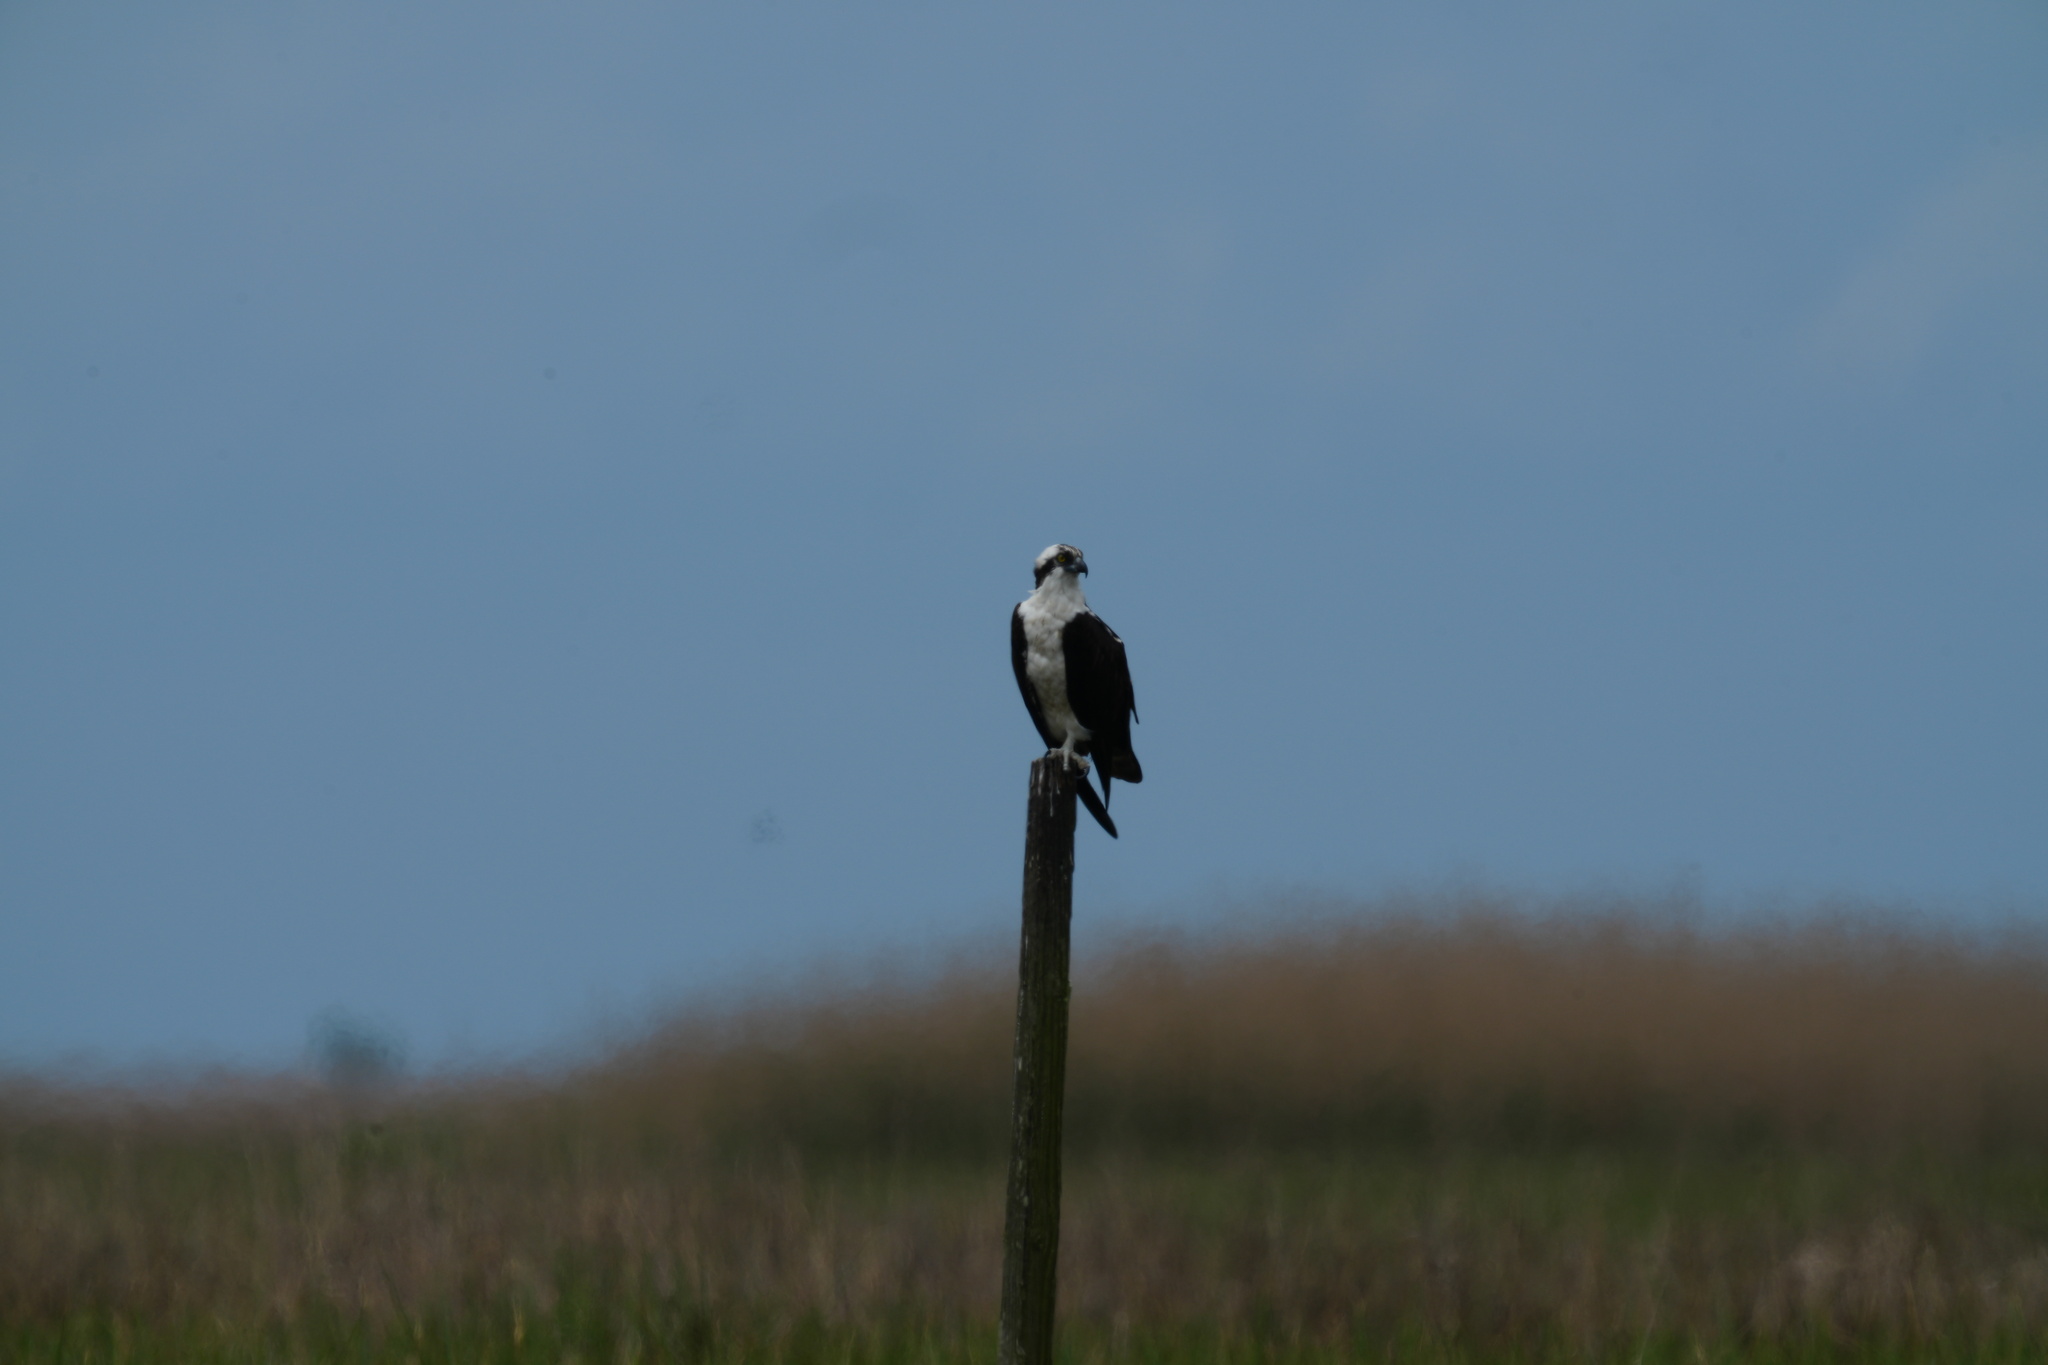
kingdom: Animalia
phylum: Chordata
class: Aves
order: Accipitriformes
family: Pandionidae
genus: Pandion
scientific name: Pandion haliaetus
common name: Osprey
